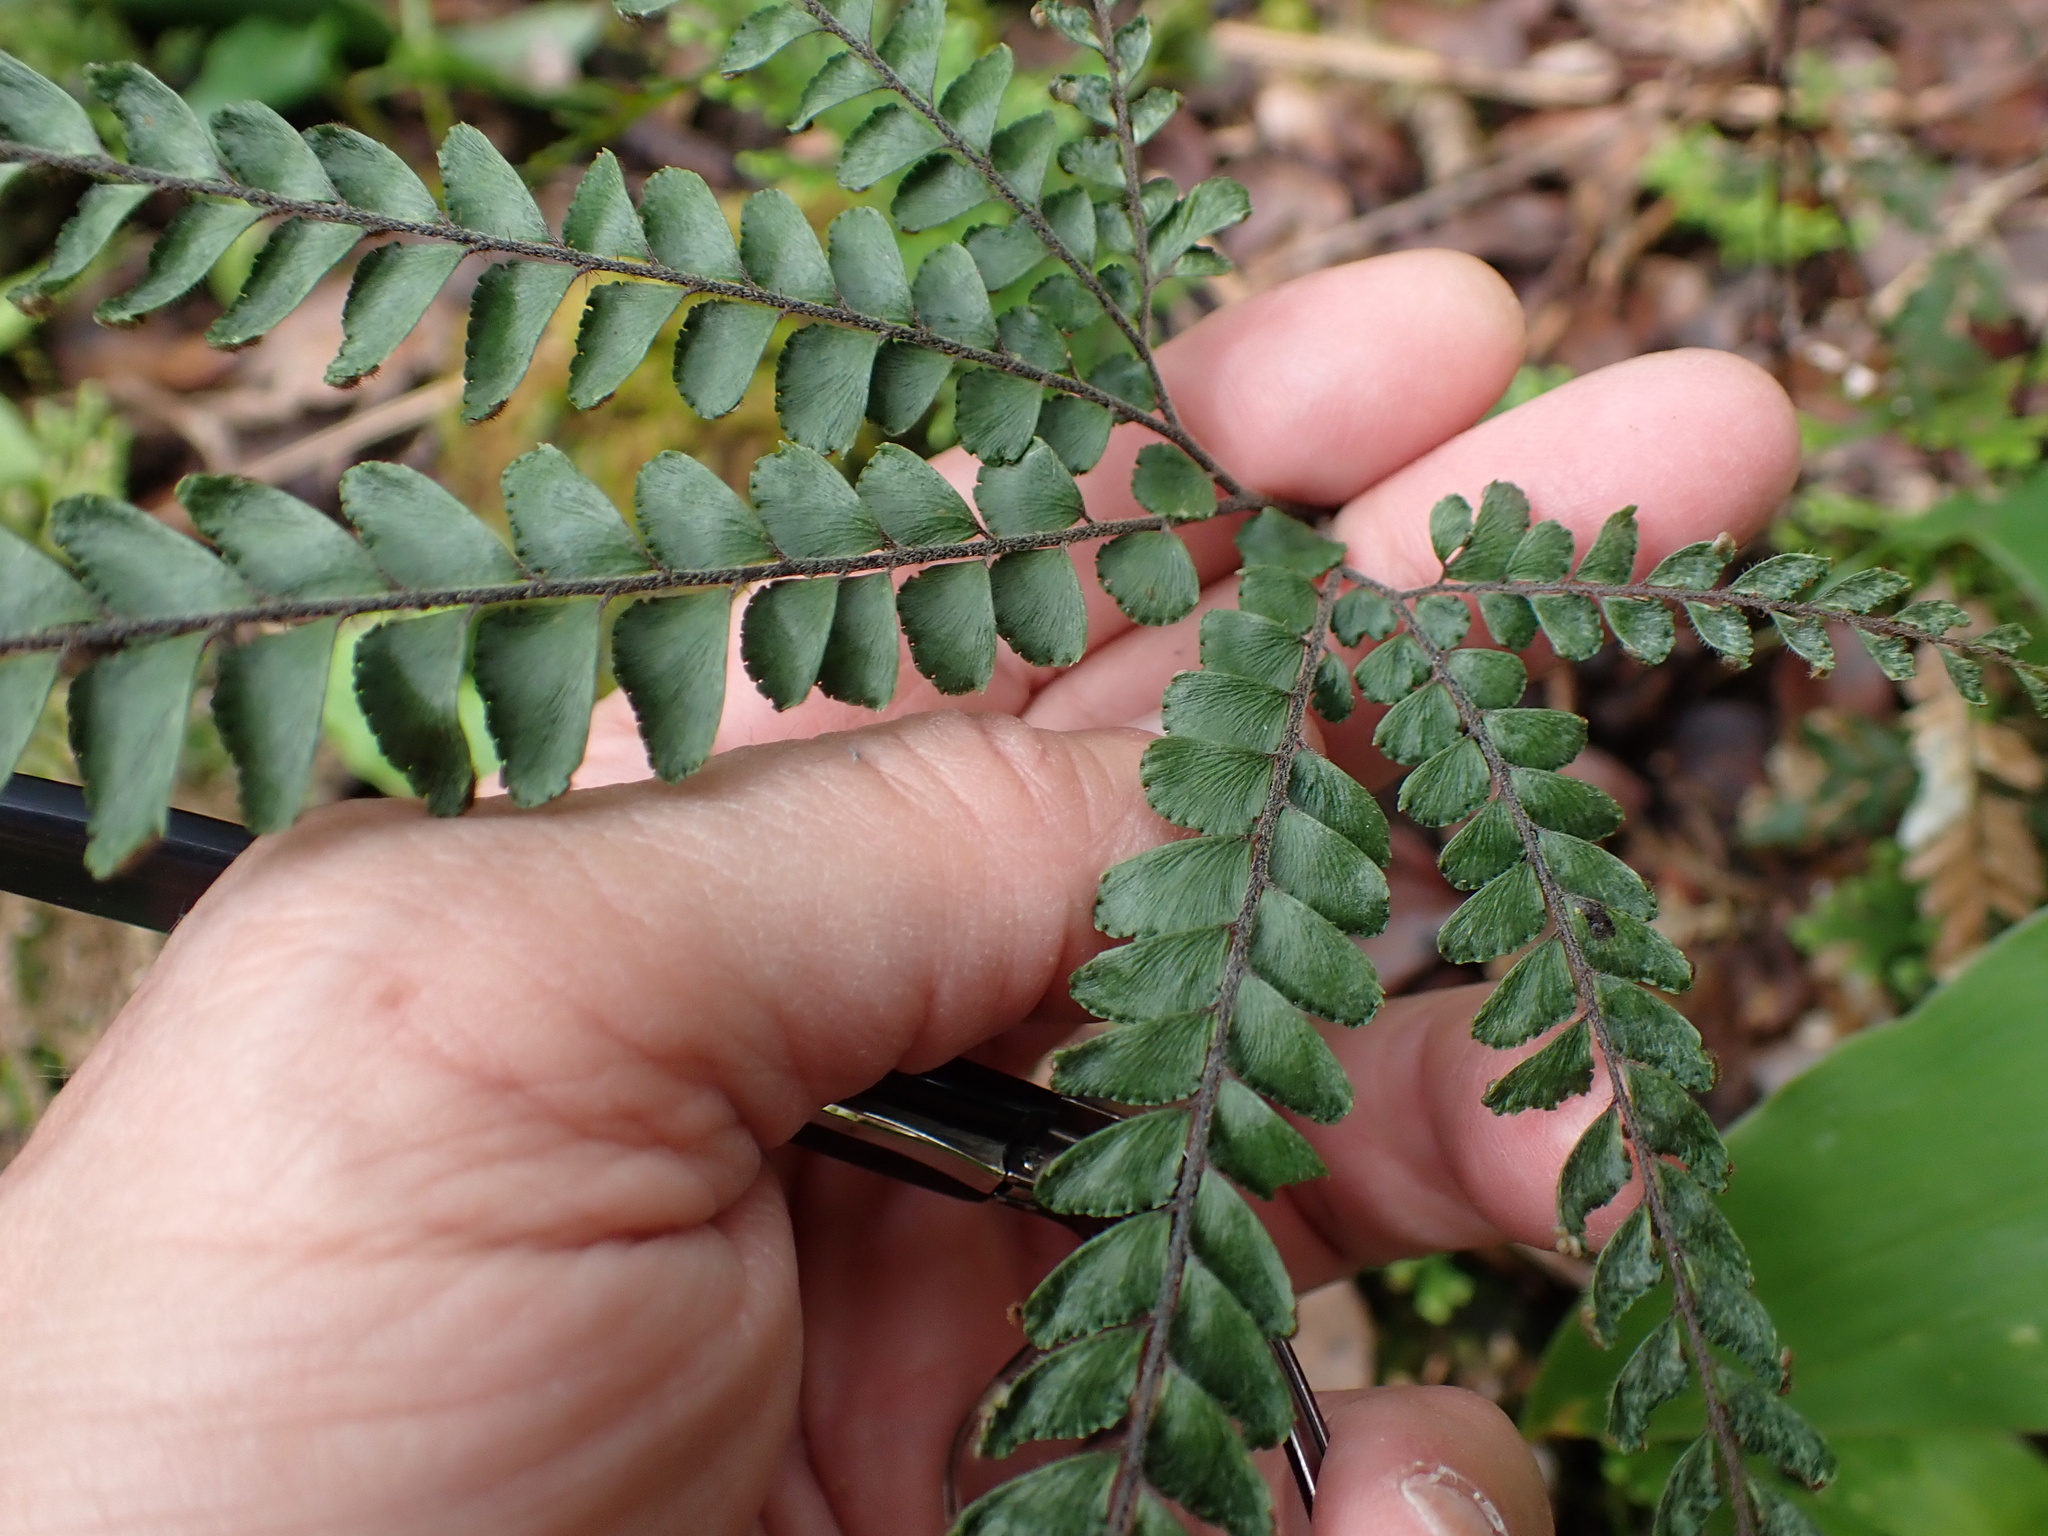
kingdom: Plantae
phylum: Tracheophyta
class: Polypodiopsida
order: Polypodiales
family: Pteridaceae
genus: Adiantum
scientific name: Adiantum hispidulum
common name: Rough maidenhair
